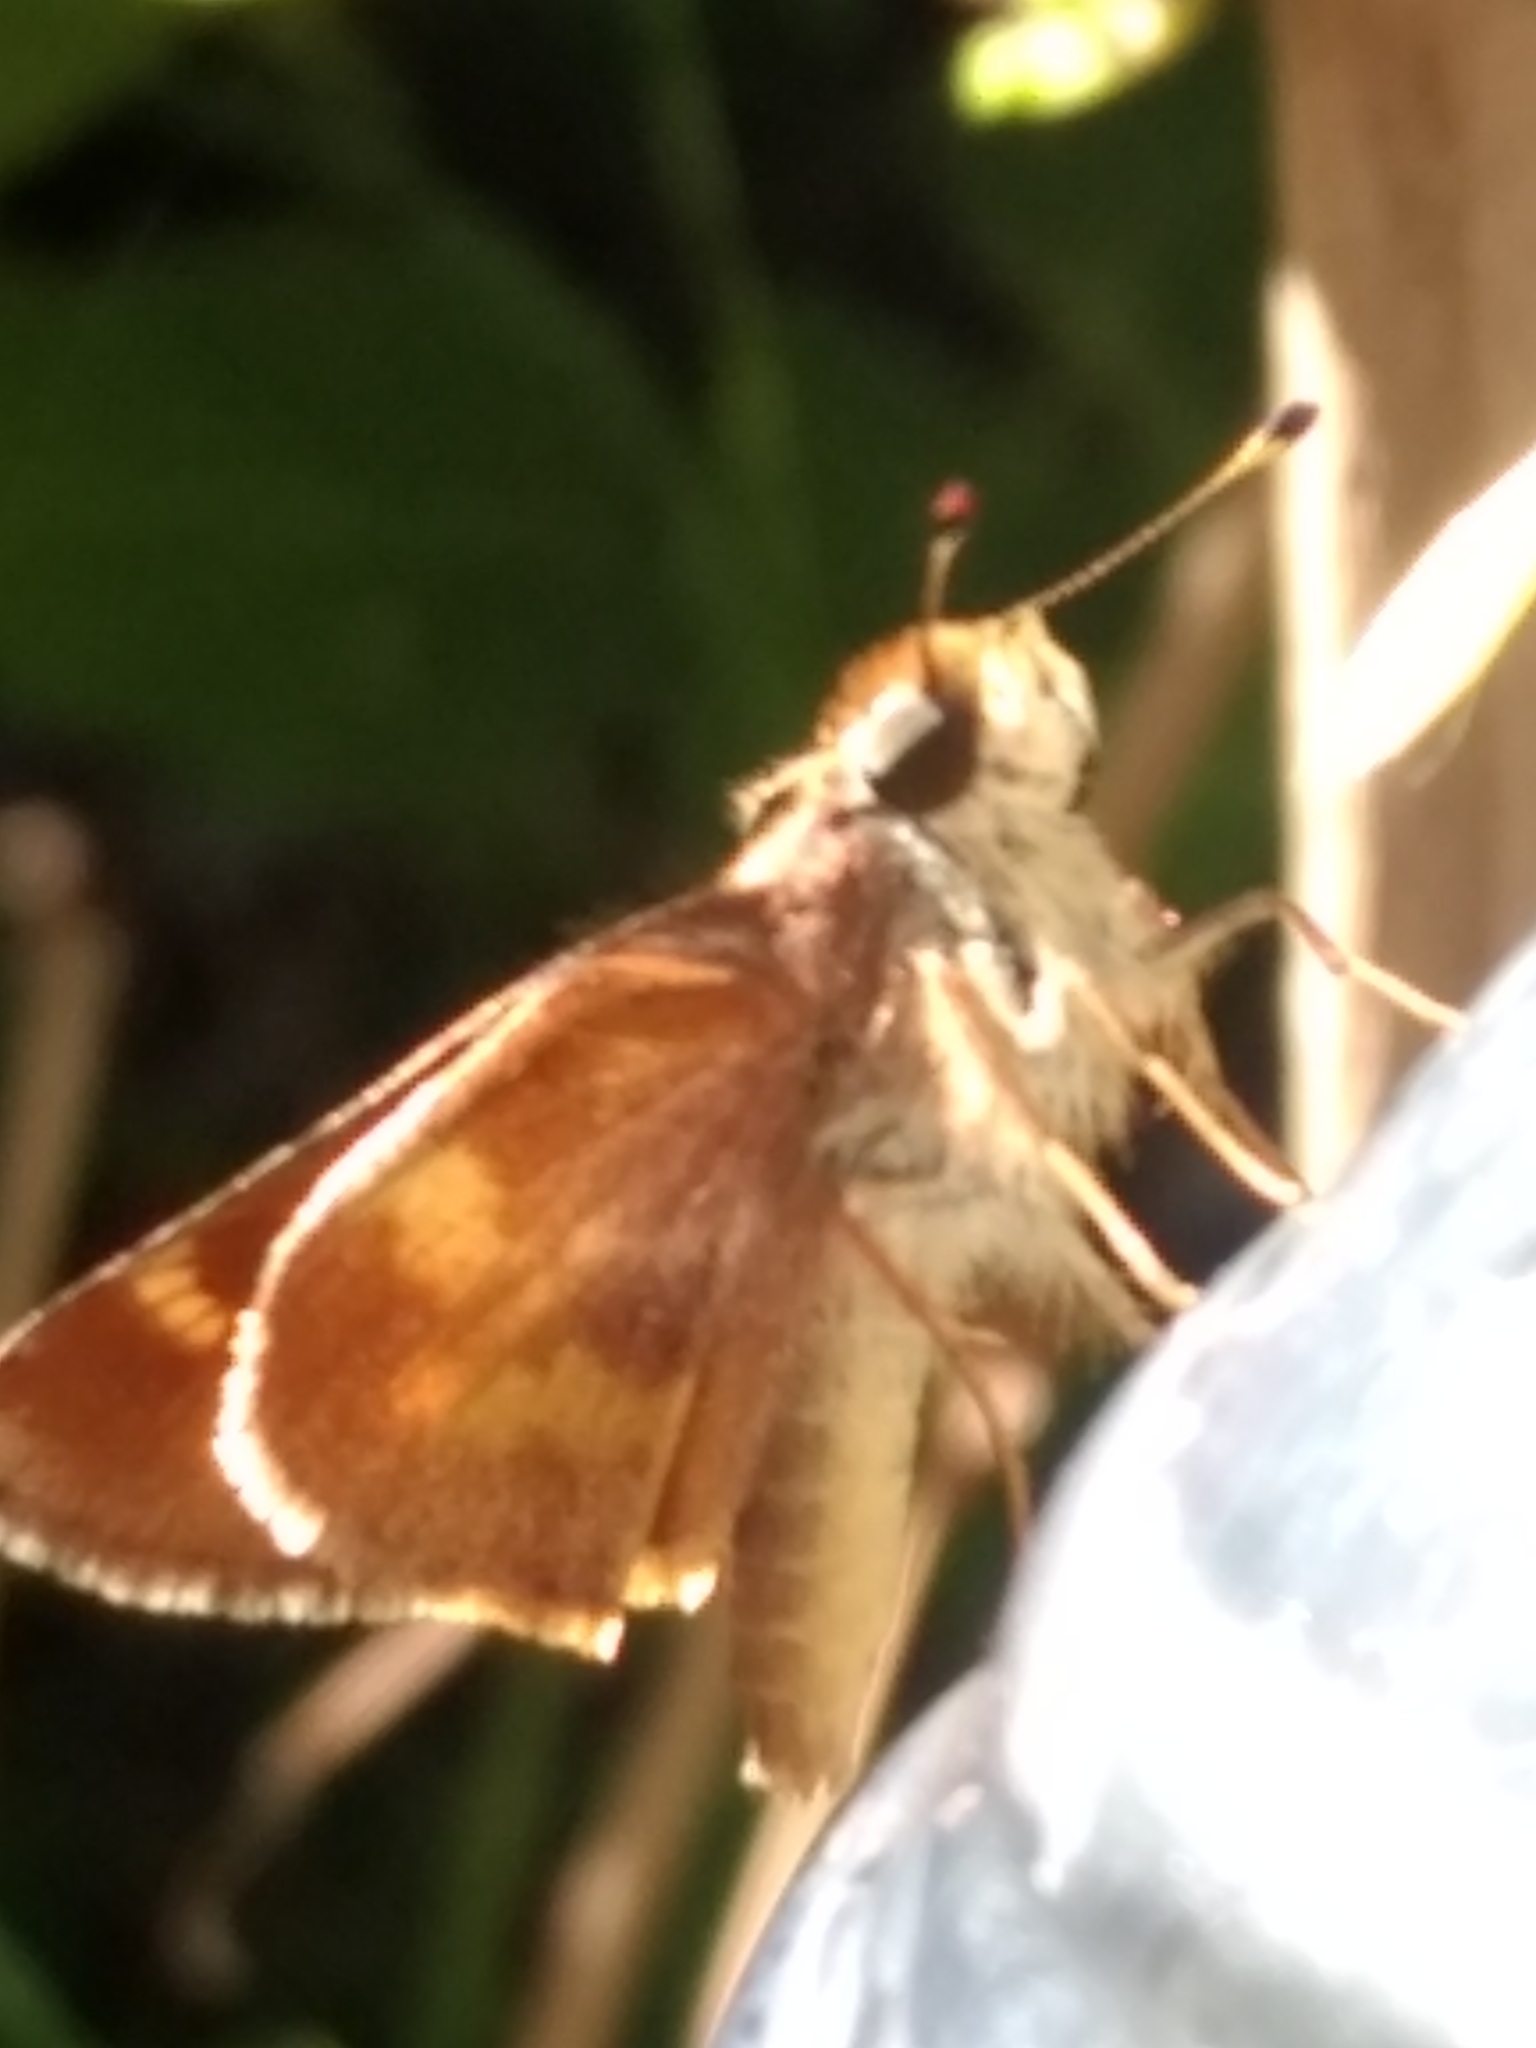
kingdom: Animalia
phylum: Arthropoda
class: Insecta
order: Lepidoptera
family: Hesperiidae
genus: Lon
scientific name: Lon melane
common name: Umber skipper
